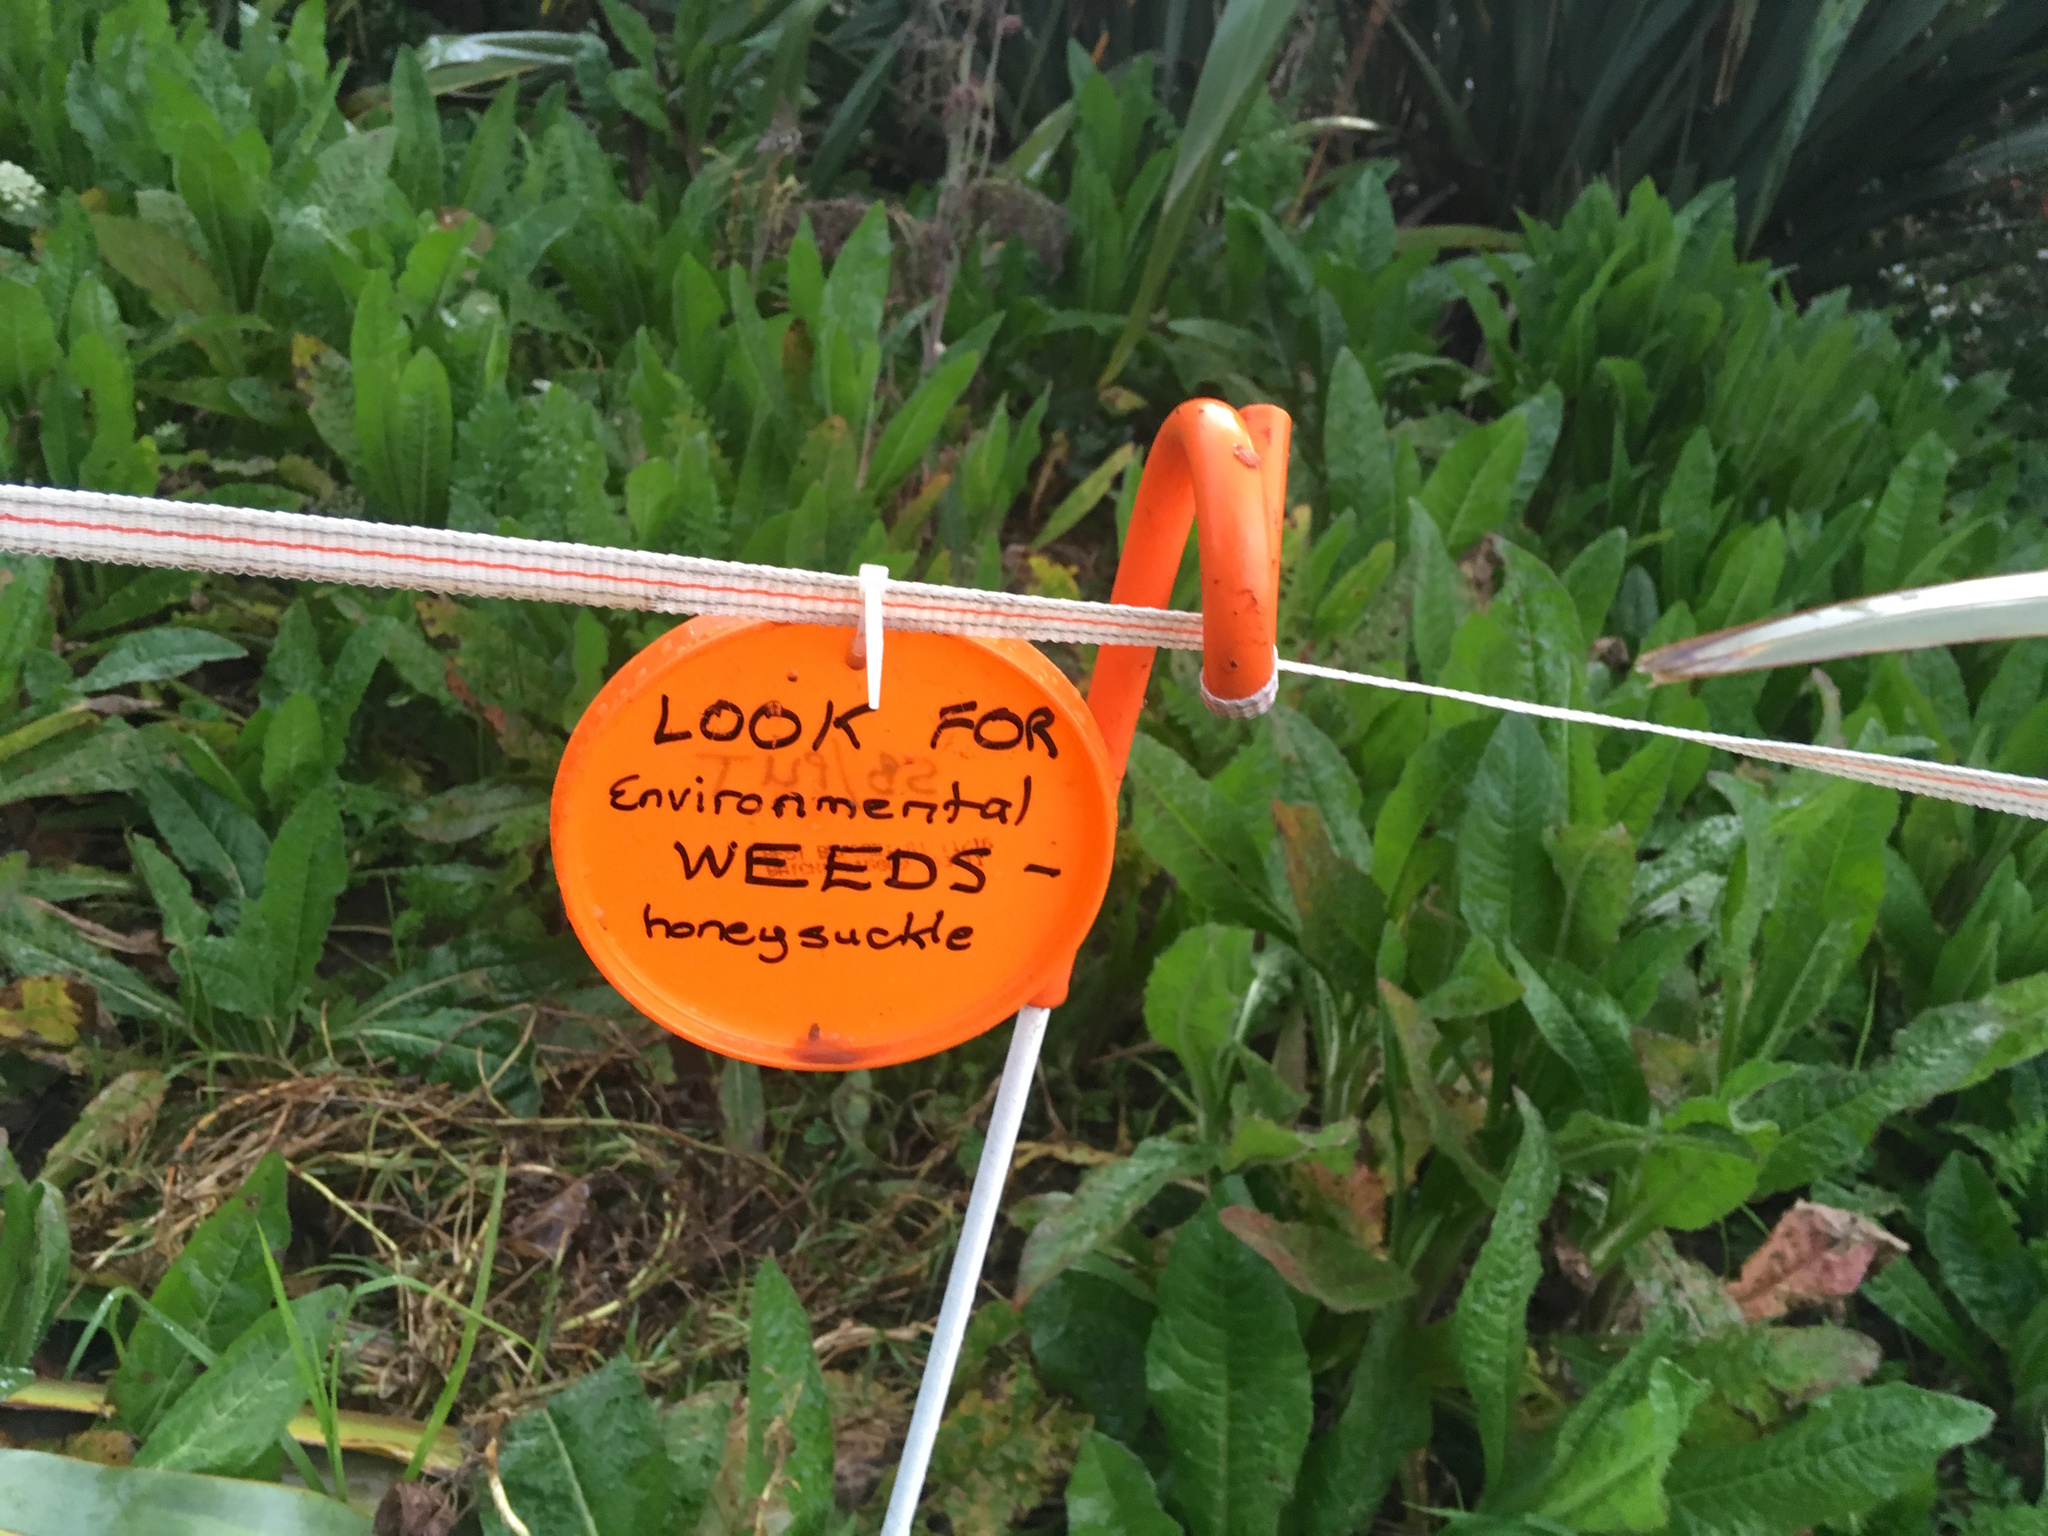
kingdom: Plantae
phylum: Tracheophyta
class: Magnoliopsida
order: Asterales
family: Asteraceae
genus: Helminthotheca
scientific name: Helminthotheca echioides
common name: Ox-tongue
